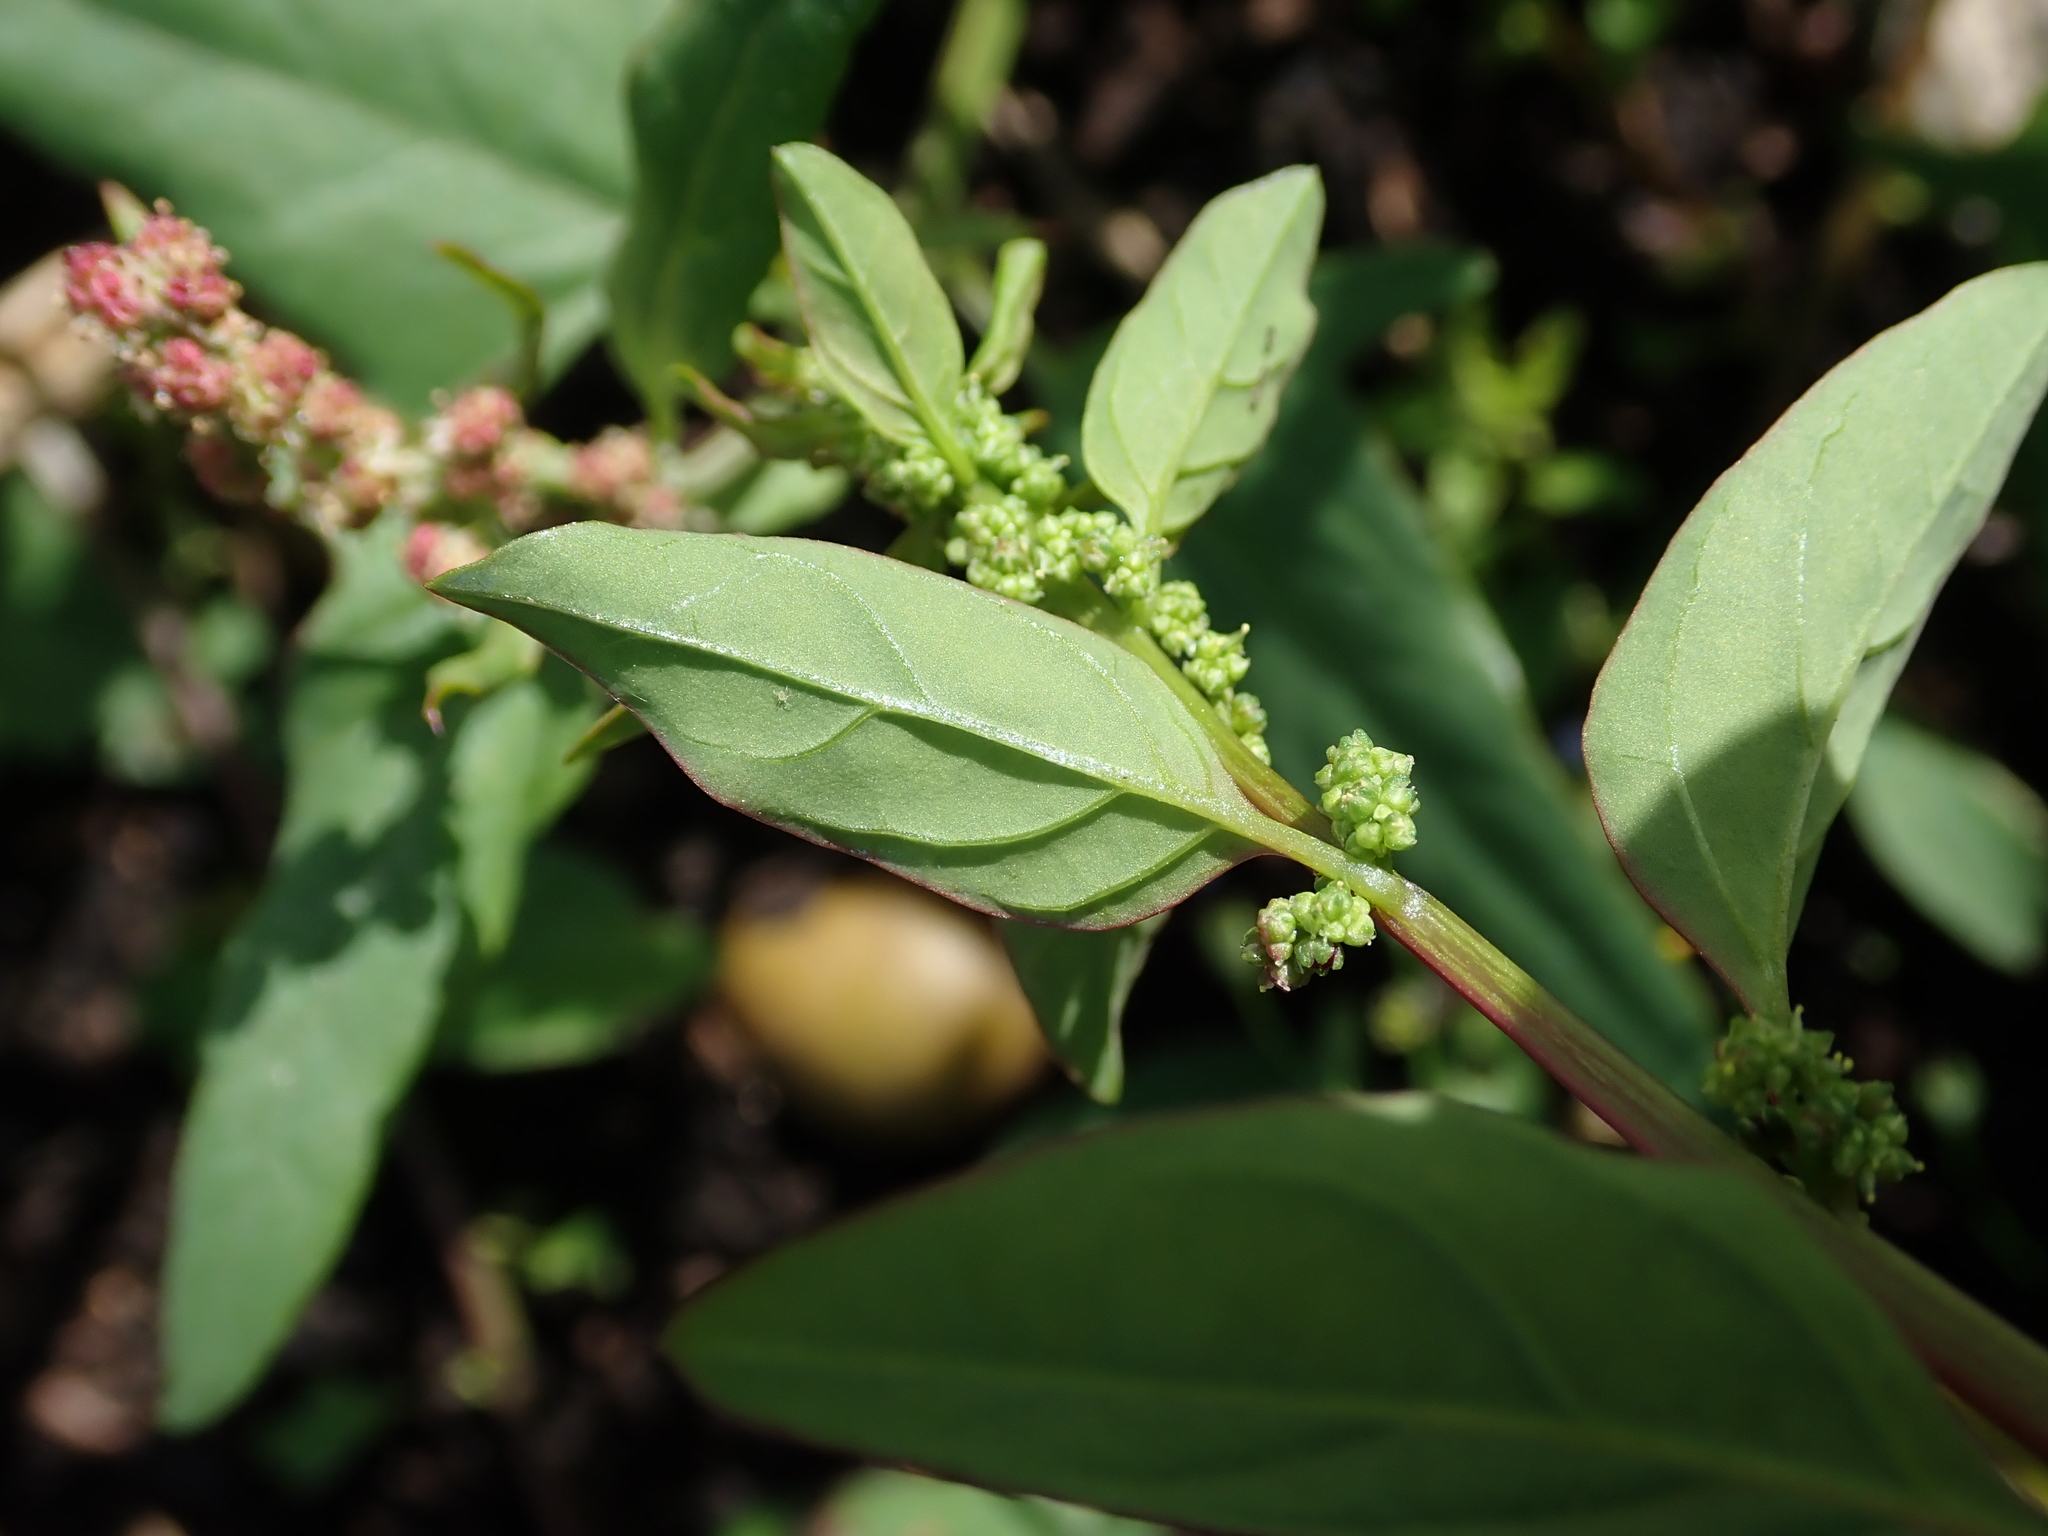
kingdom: Plantae
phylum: Tracheophyta
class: Magnoliopsida
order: Caryophyllales
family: Amaranthaceae
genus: Lipandra
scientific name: Lipandra polysperma
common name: Many-seed goosefoot
